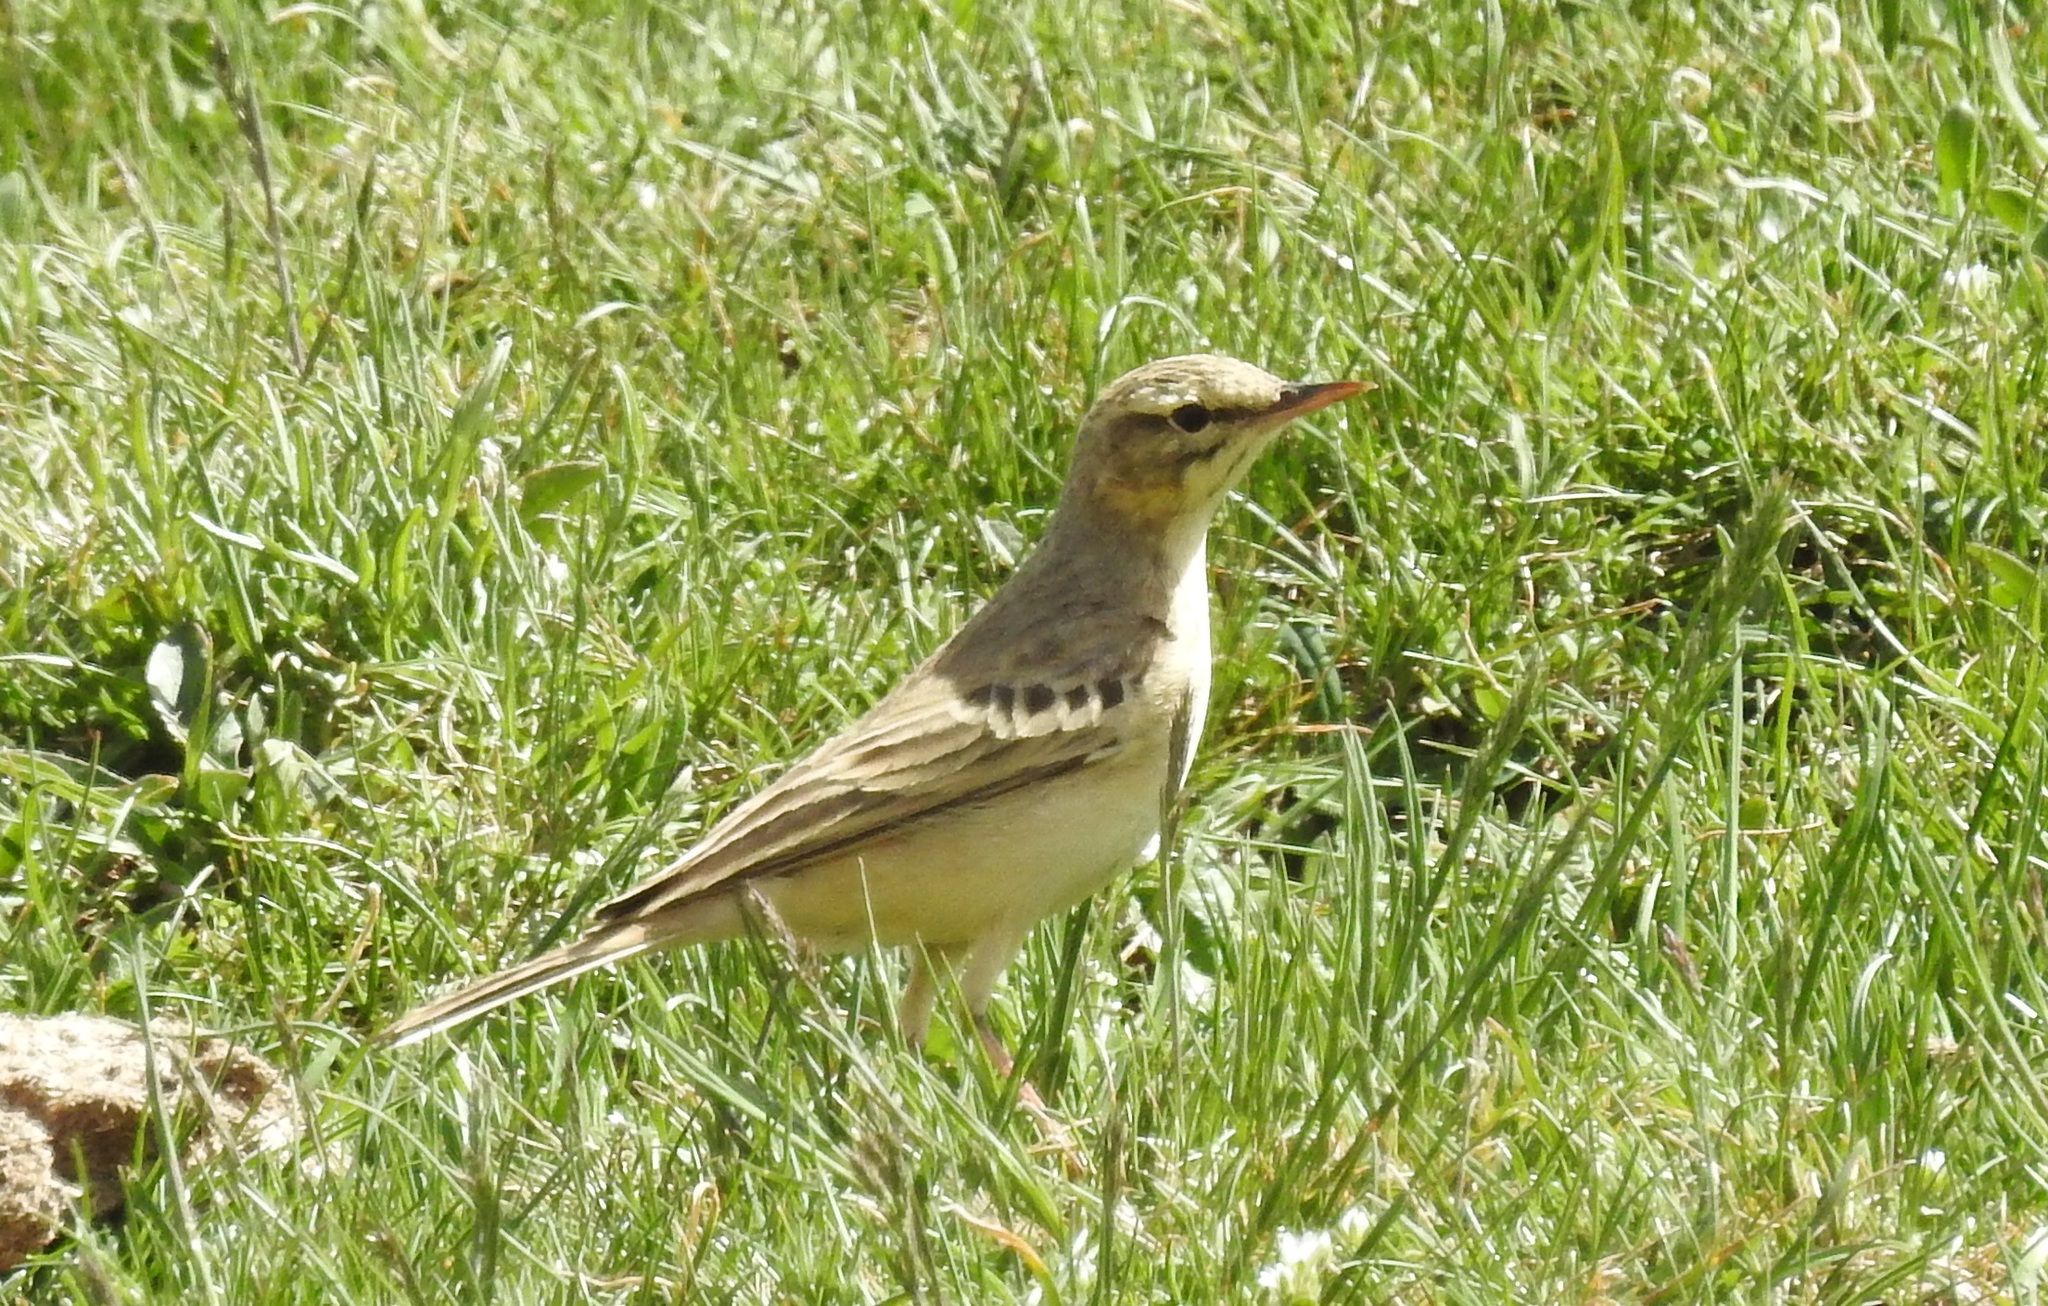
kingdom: Animalia
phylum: Chordata
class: Aves
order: Passeriformes
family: Motacillidae
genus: Anthus
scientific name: Anthus campestris
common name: Tawny pipit
